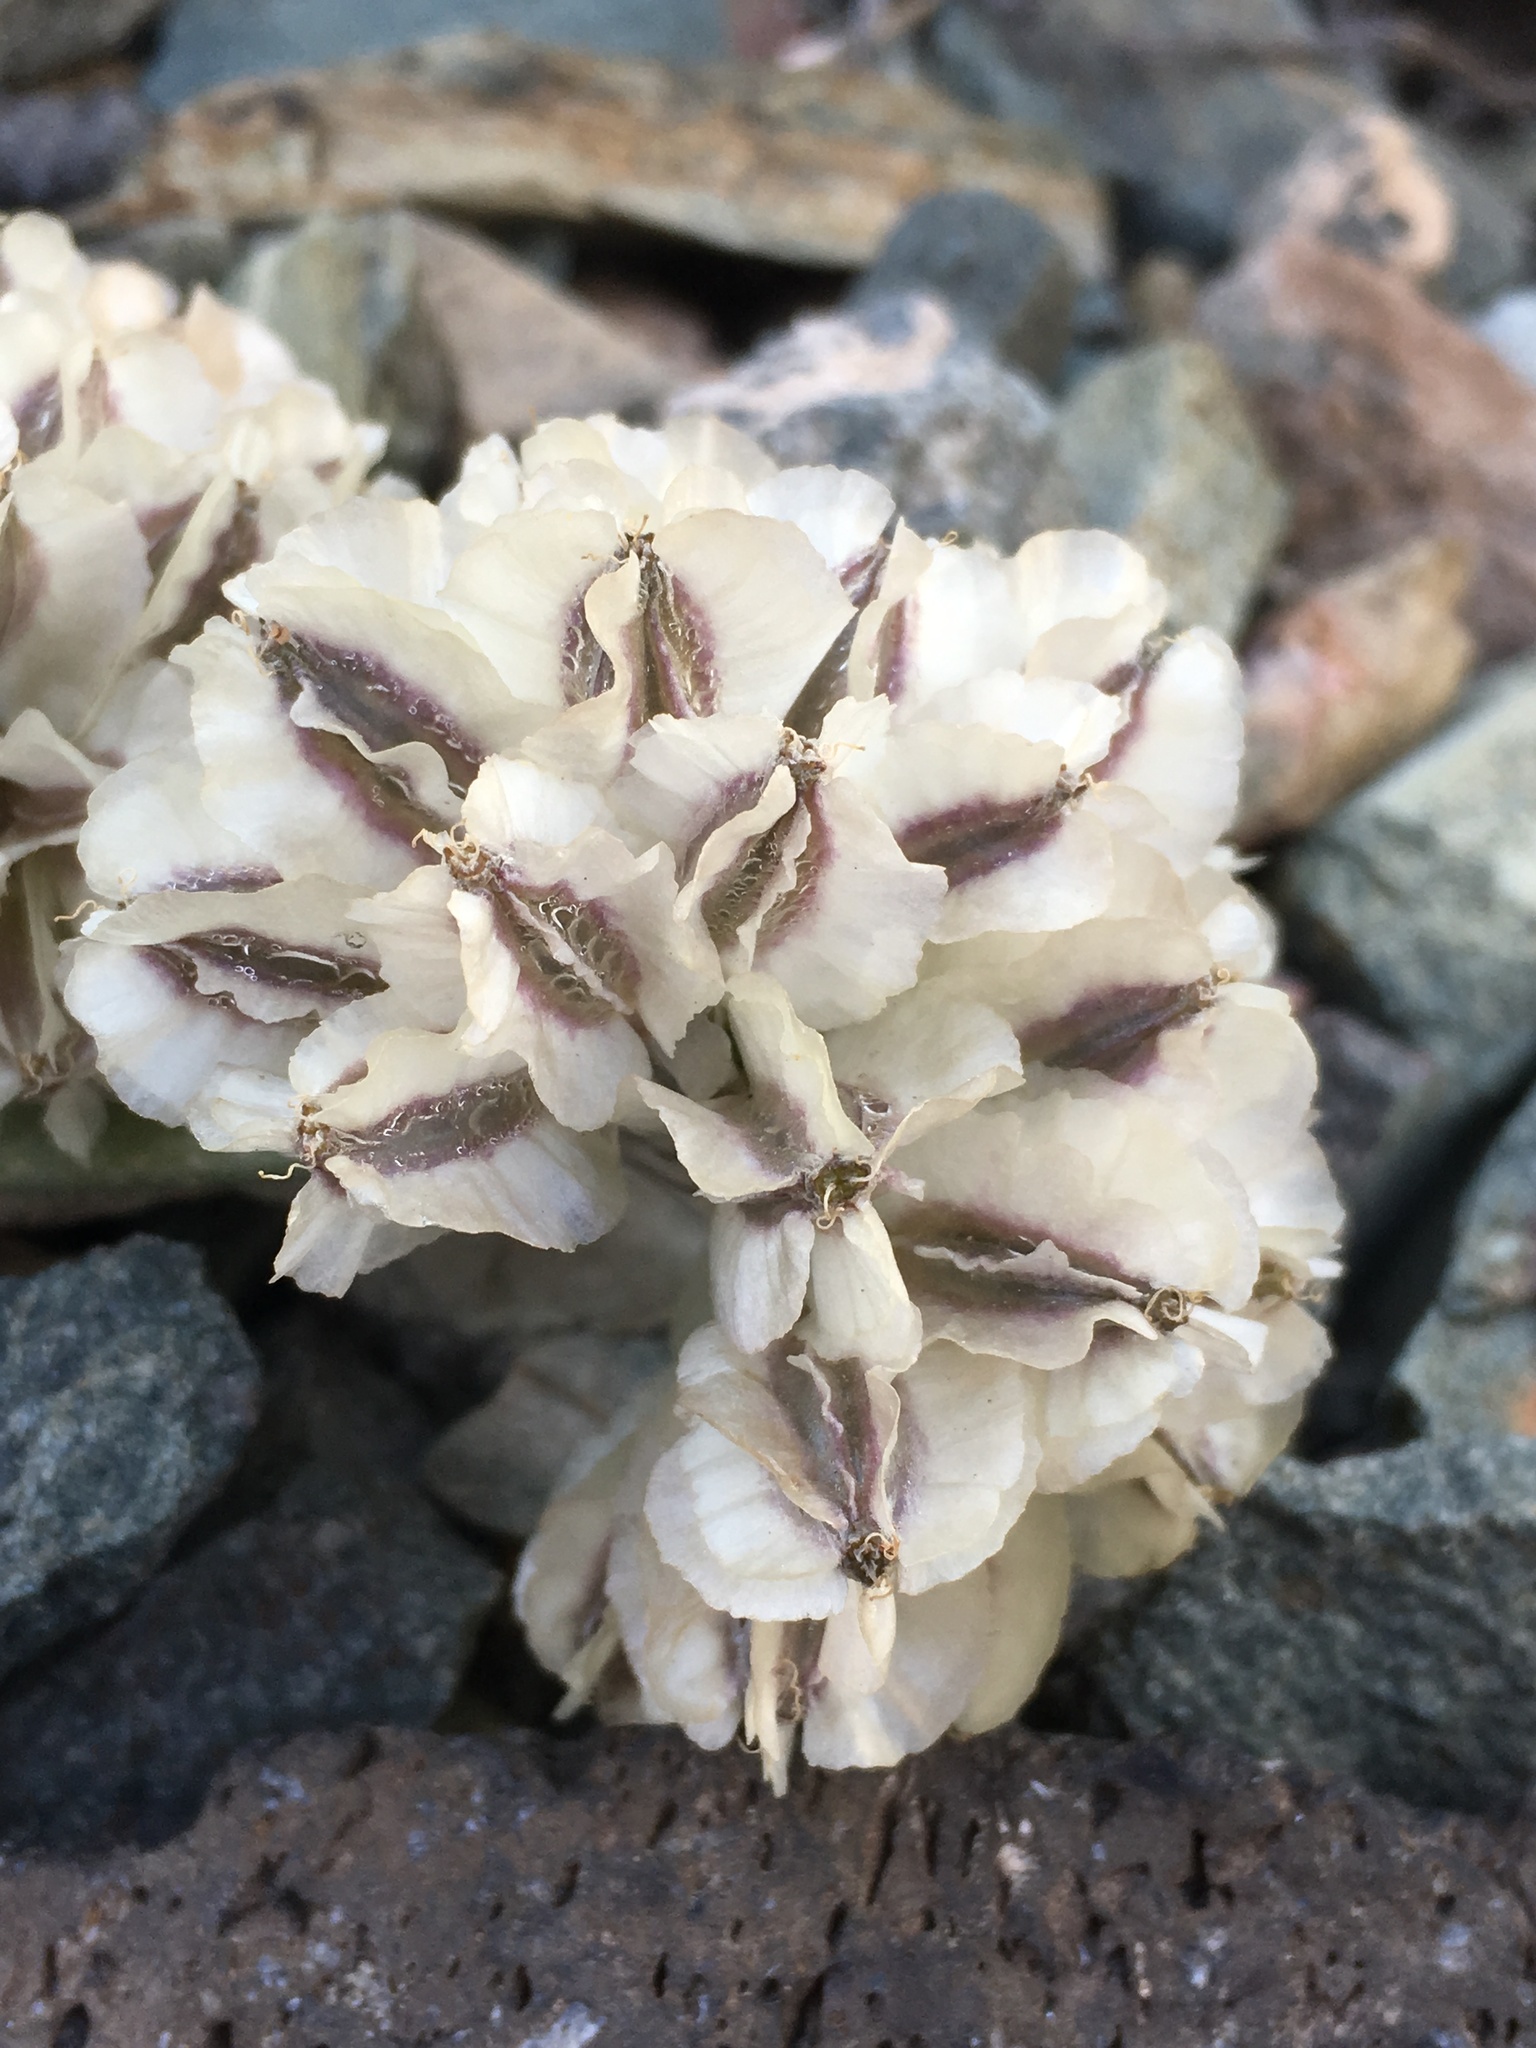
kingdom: Plantae
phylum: Tracheophyta
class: Magnoliopsida
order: Apiales
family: Apiaceae
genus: Vesper
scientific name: Vesper purpurascens
